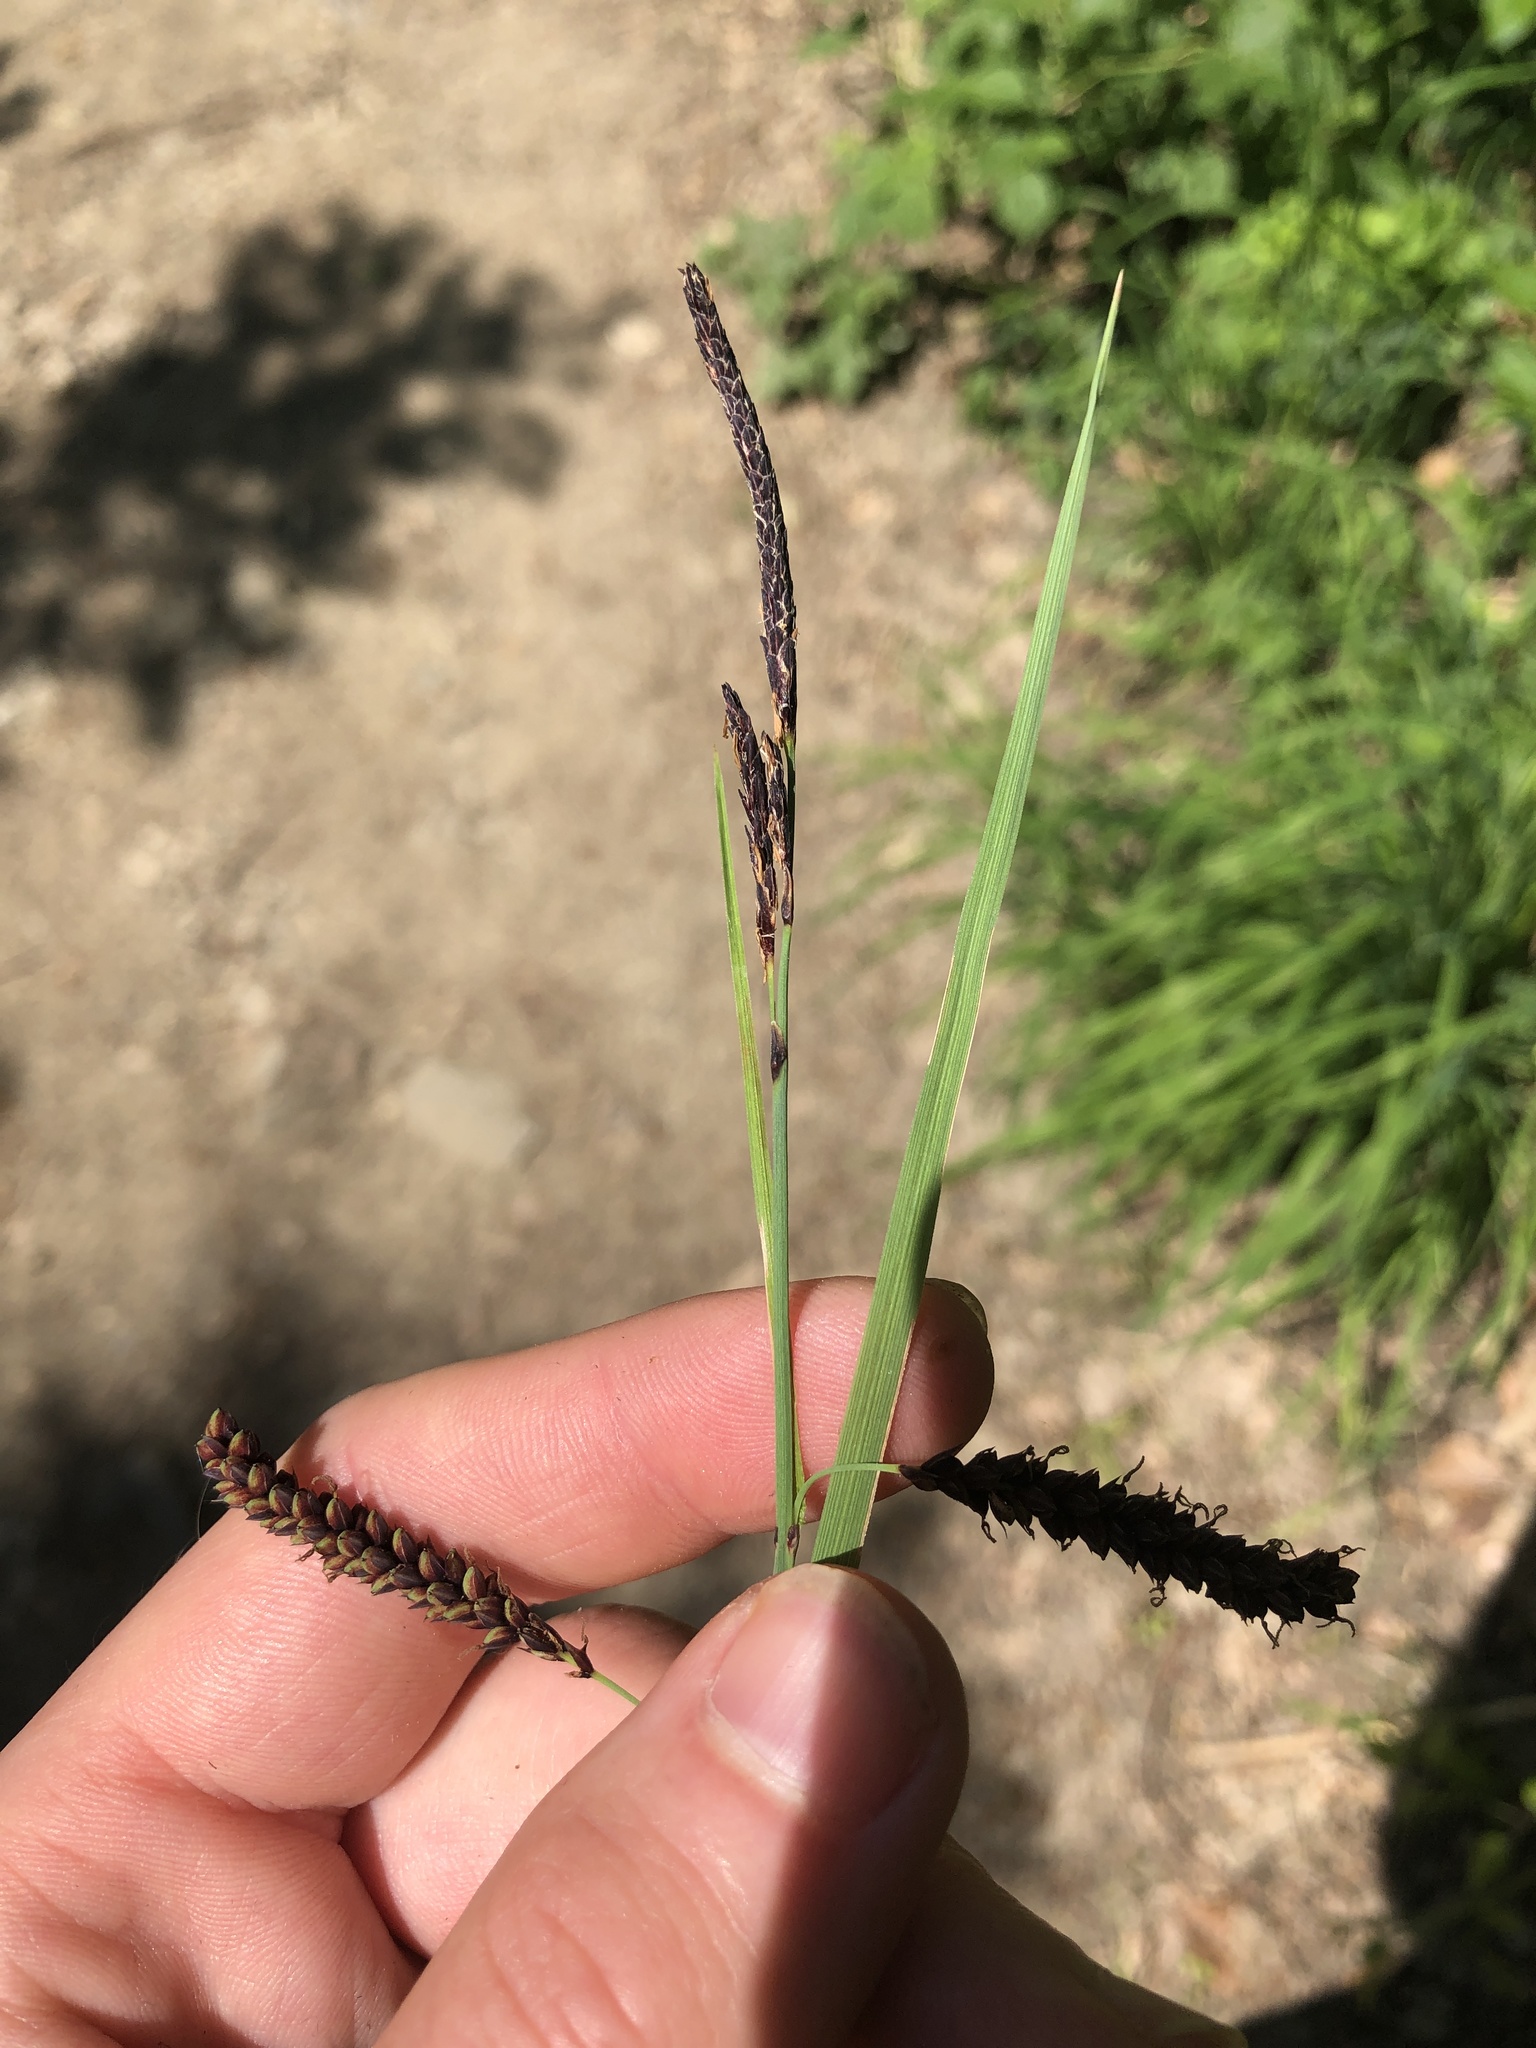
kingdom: Plantae
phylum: Tracheophyta
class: Liliopsida
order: Poales
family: Cyperaceae
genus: Carex
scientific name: Carex flacca
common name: Glaucous sedge
